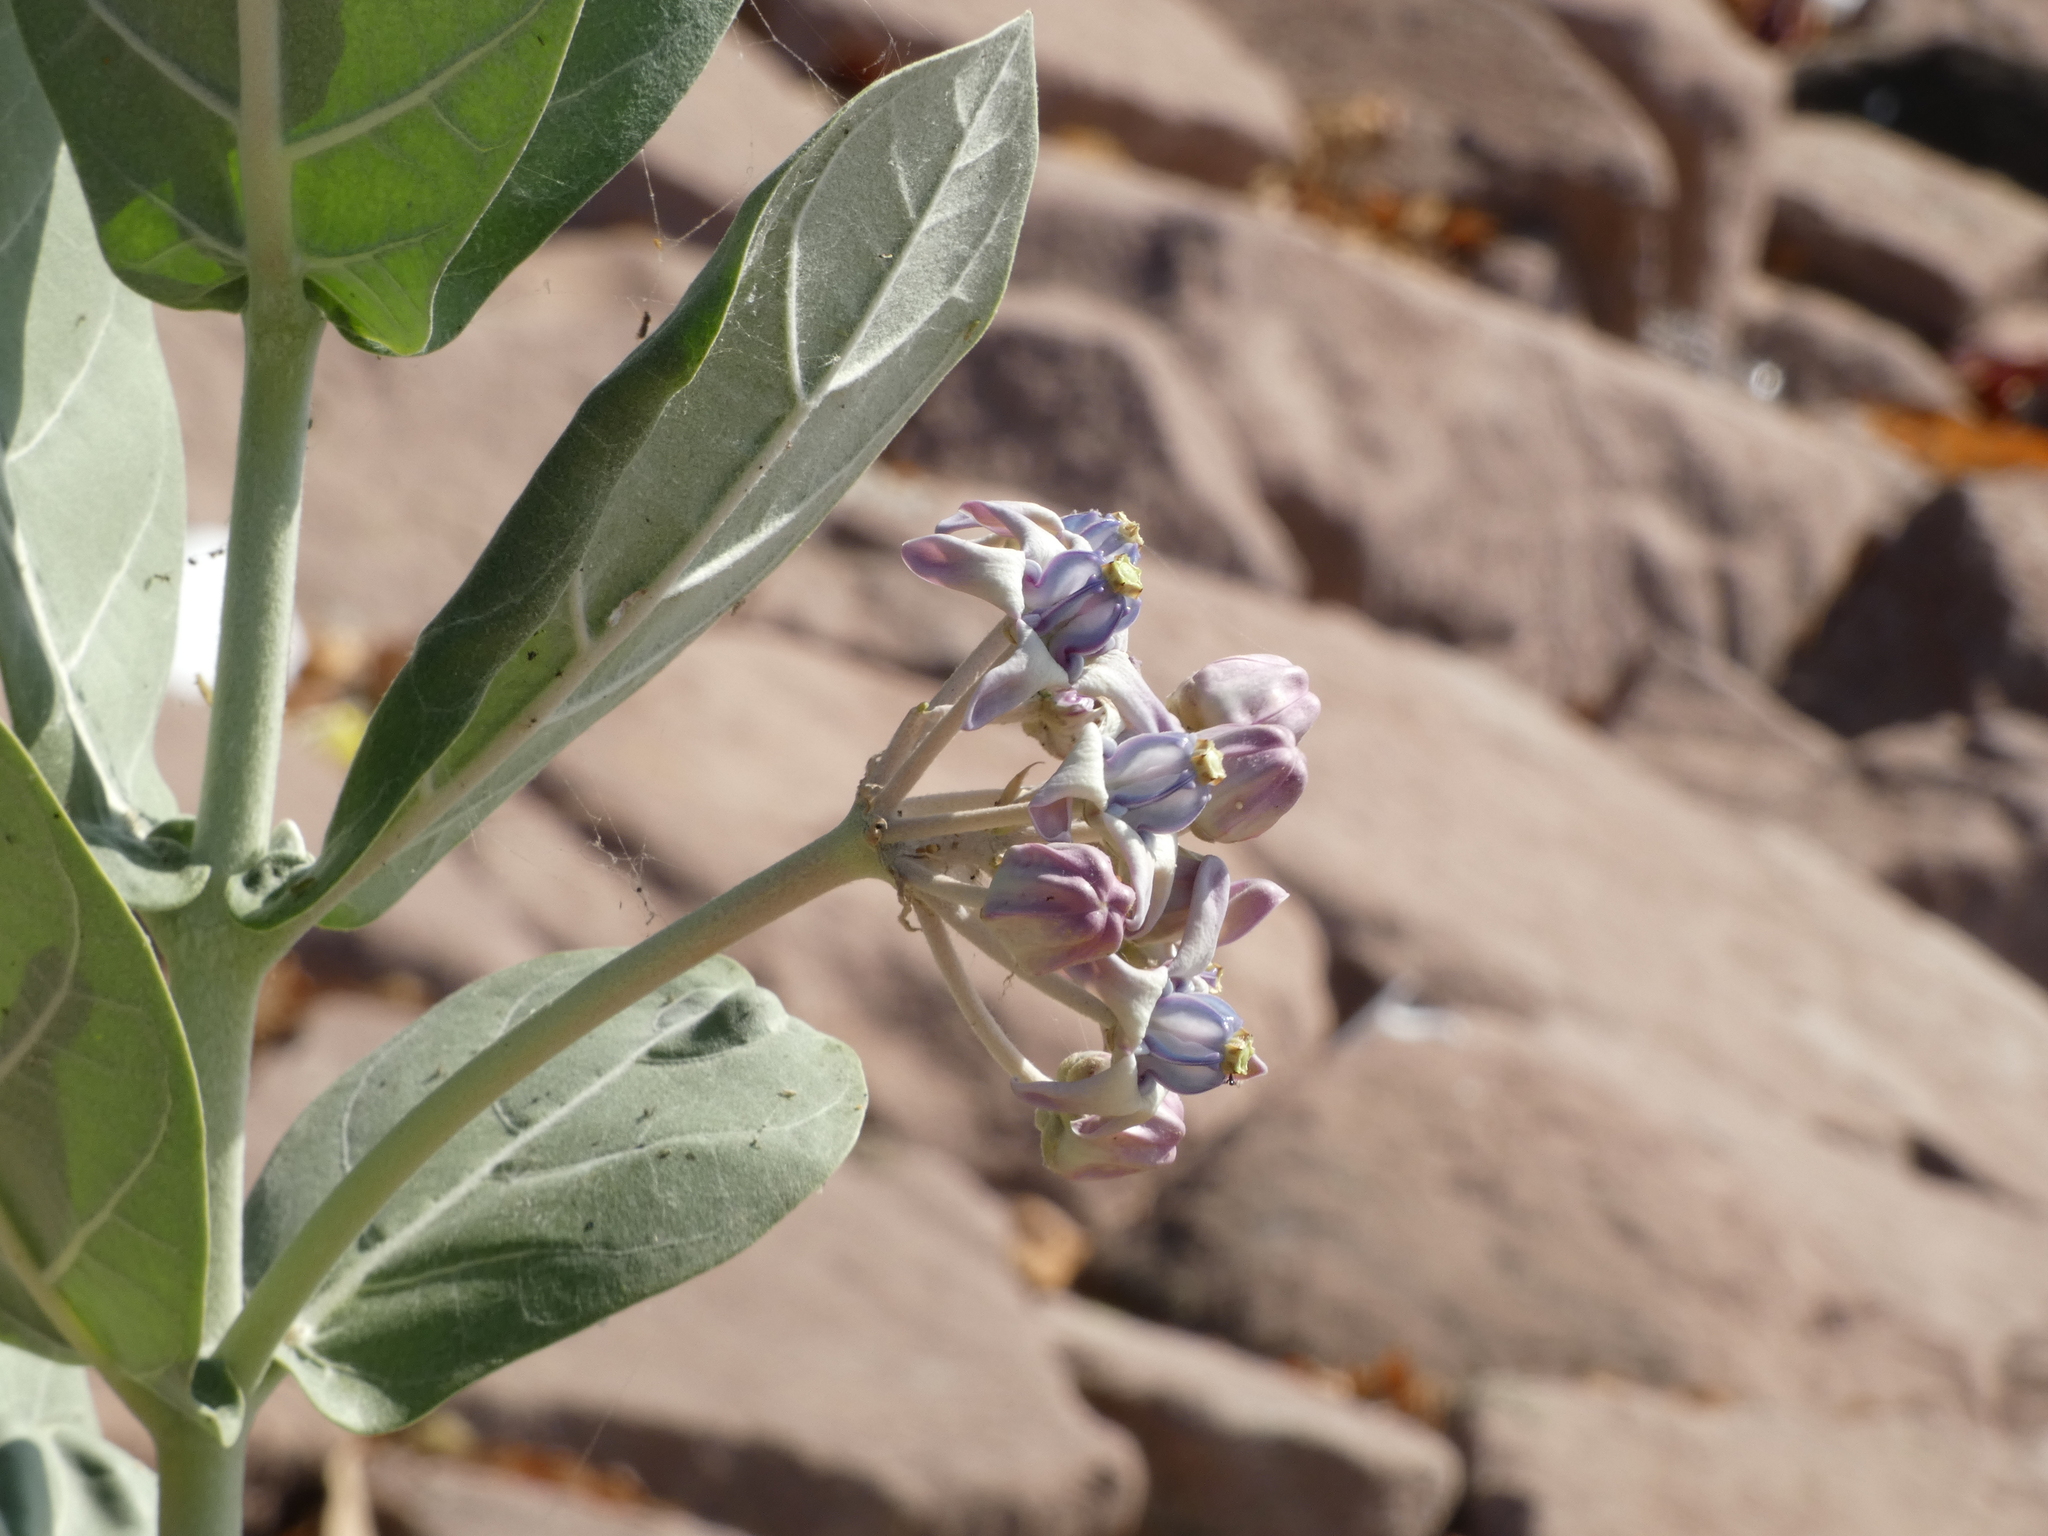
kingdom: Plantae
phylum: Tracheophyta
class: Magnoliopsida
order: Gentianales
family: Apocynaceae
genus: Calotropis
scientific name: Calotropis gigantea
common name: Crown flower
